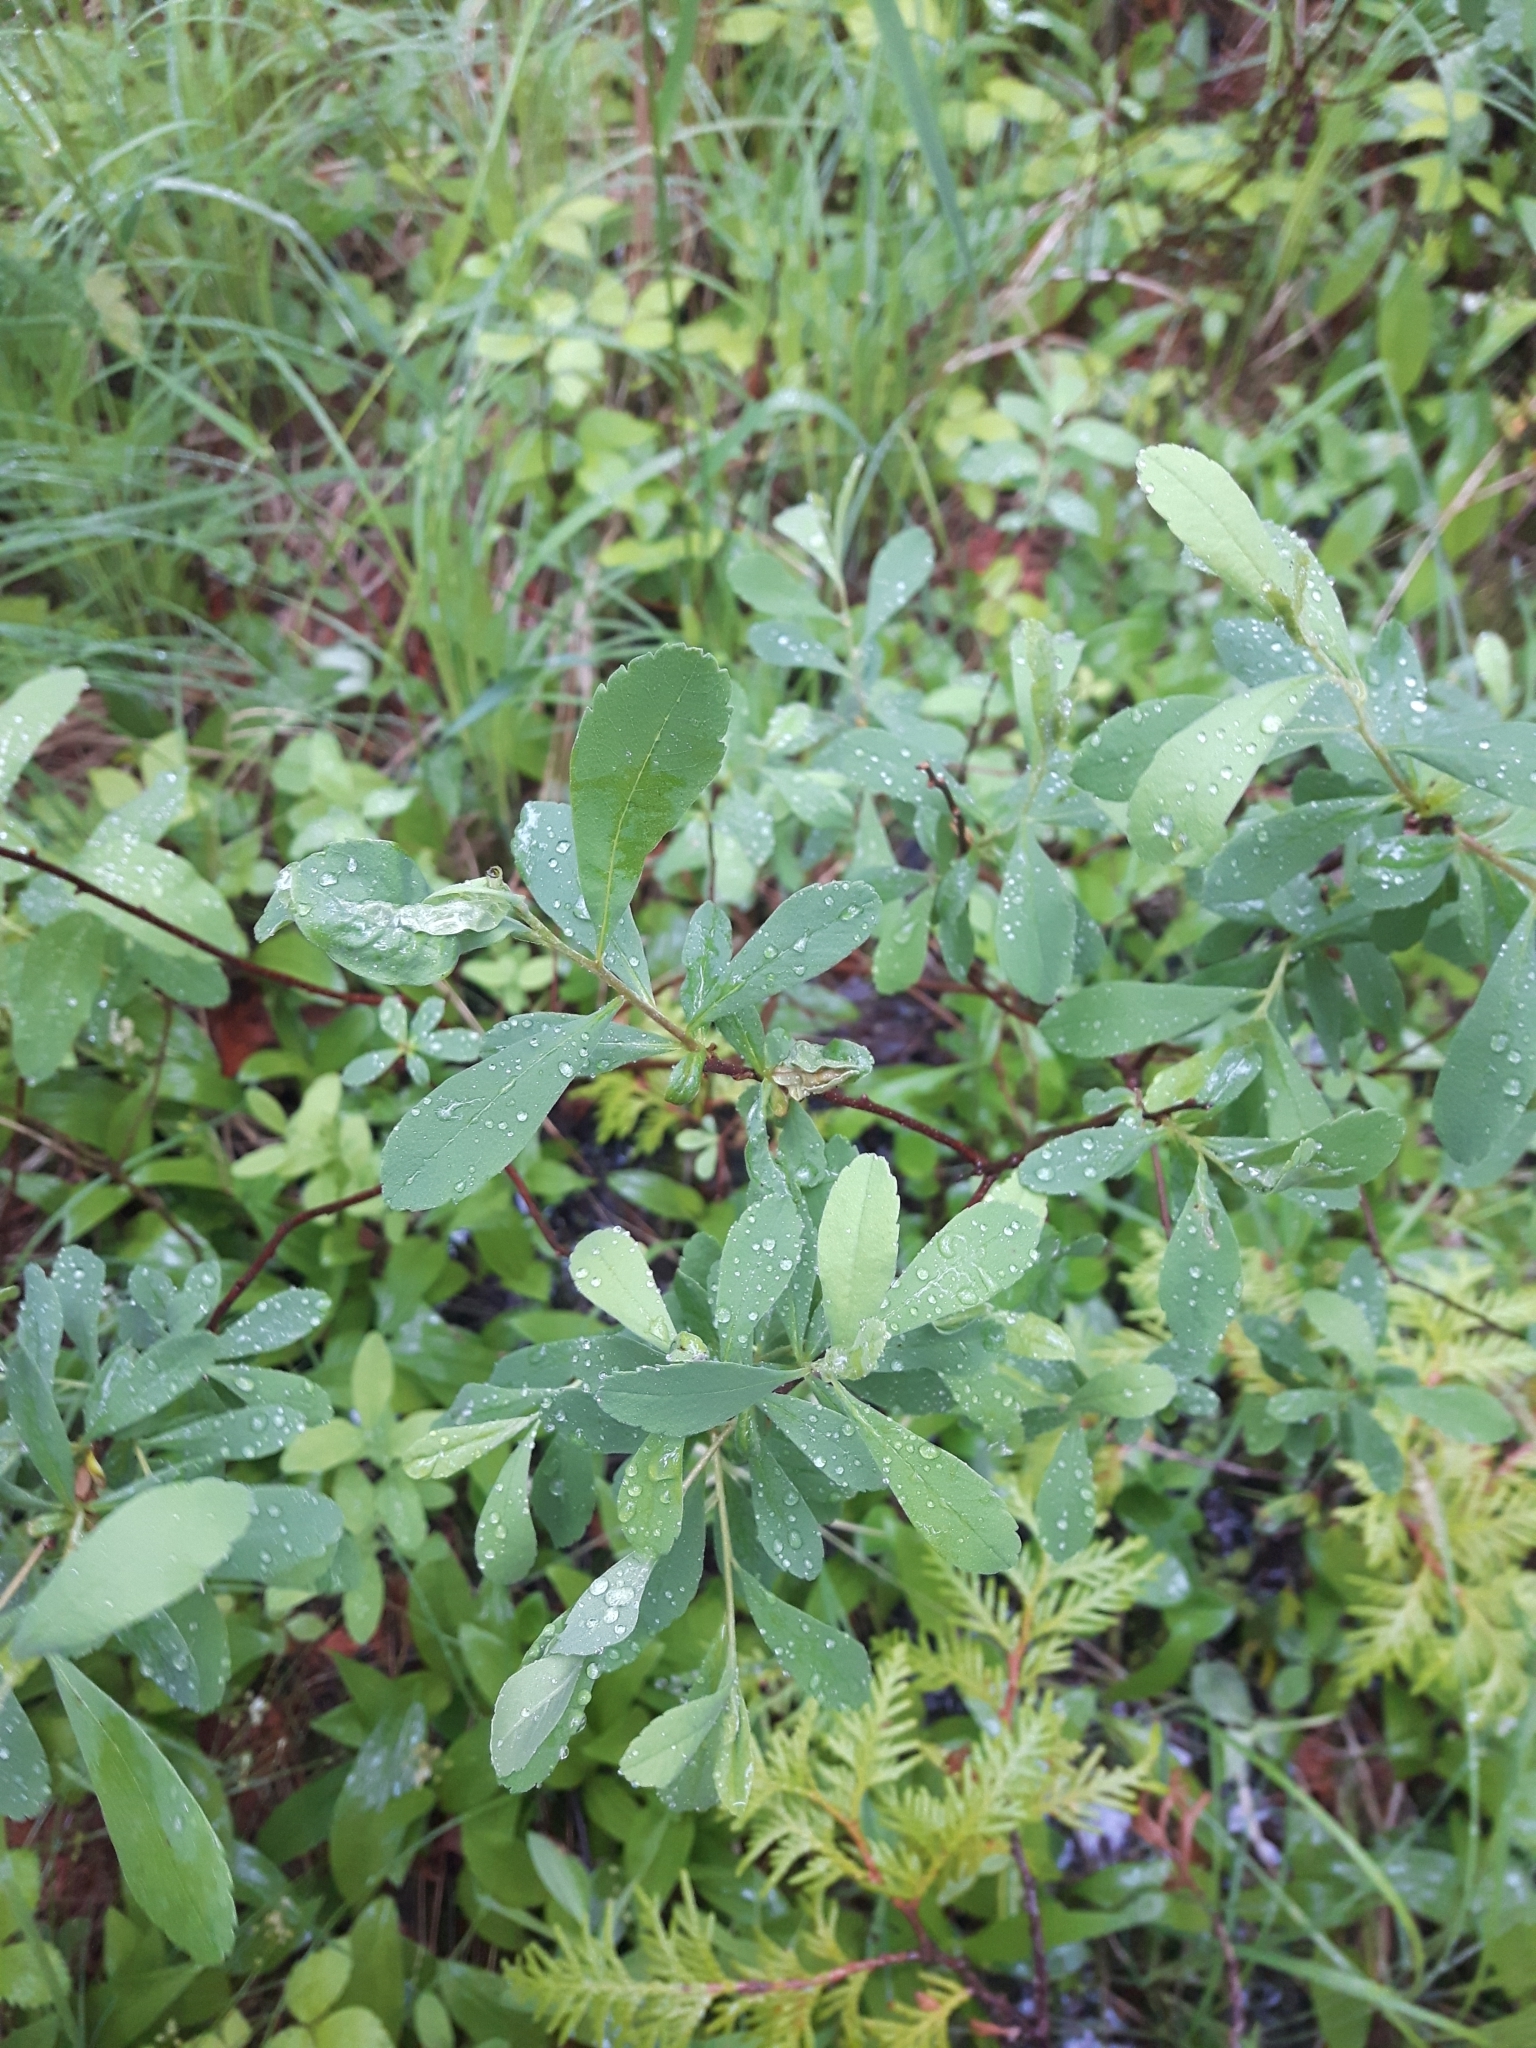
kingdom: Plantae
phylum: Tracheophyta
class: Magnoliopsida
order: Fagales
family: Myricaceae
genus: Myrica
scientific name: Myrica gale
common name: Sweet gale
